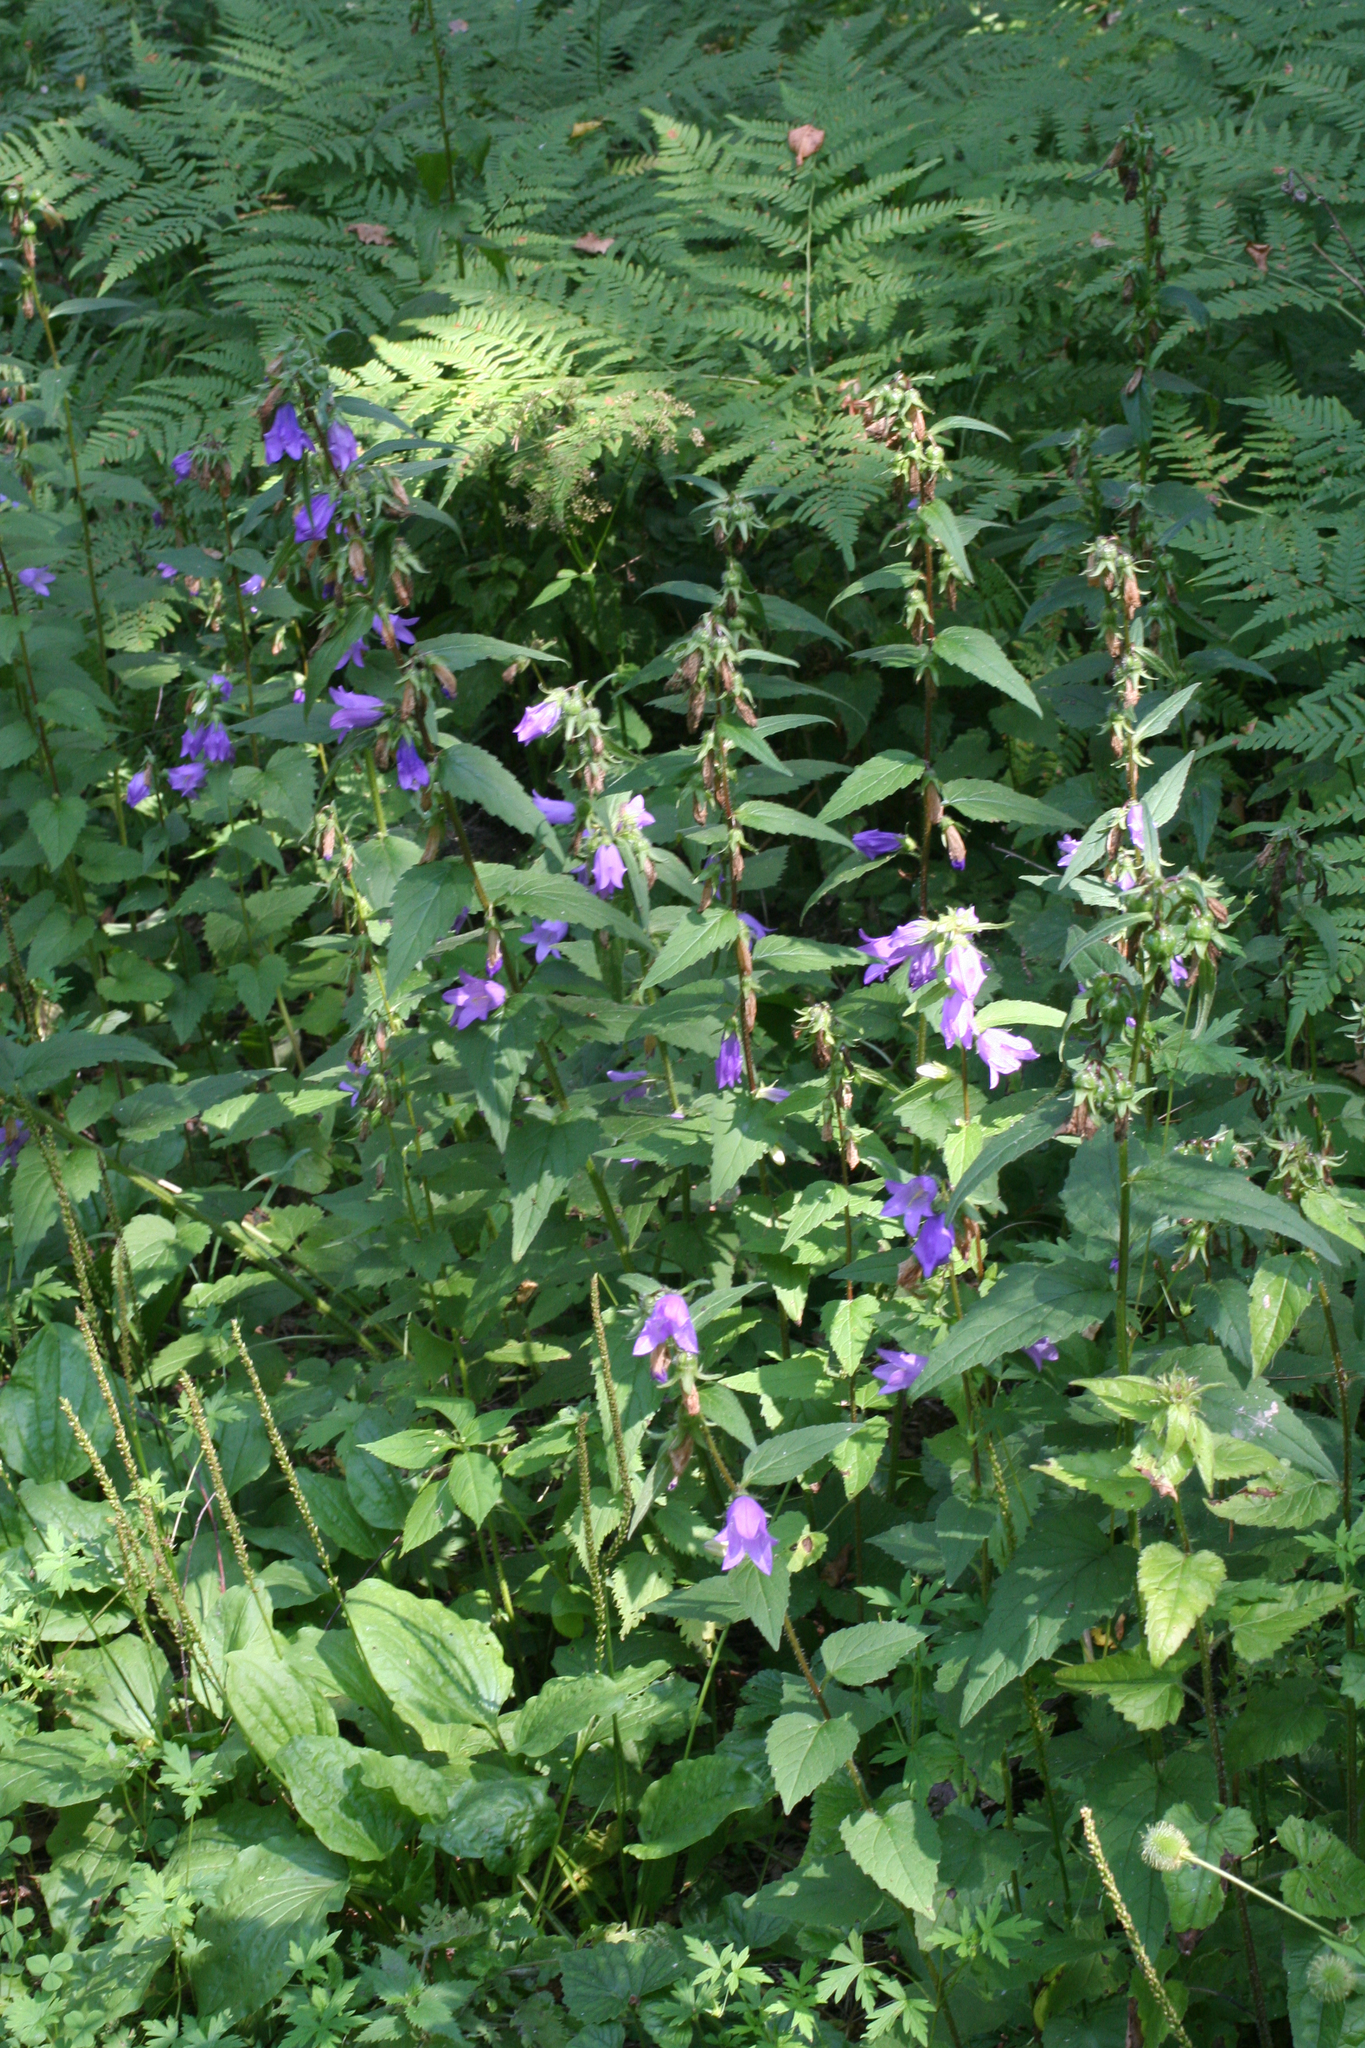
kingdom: Plantae
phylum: Tracheophyta
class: Magnoliopsida
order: Asterales
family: Campanulaceae
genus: Campanula
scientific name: Campanula trachelium
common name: Nettle-leaved bellflower
